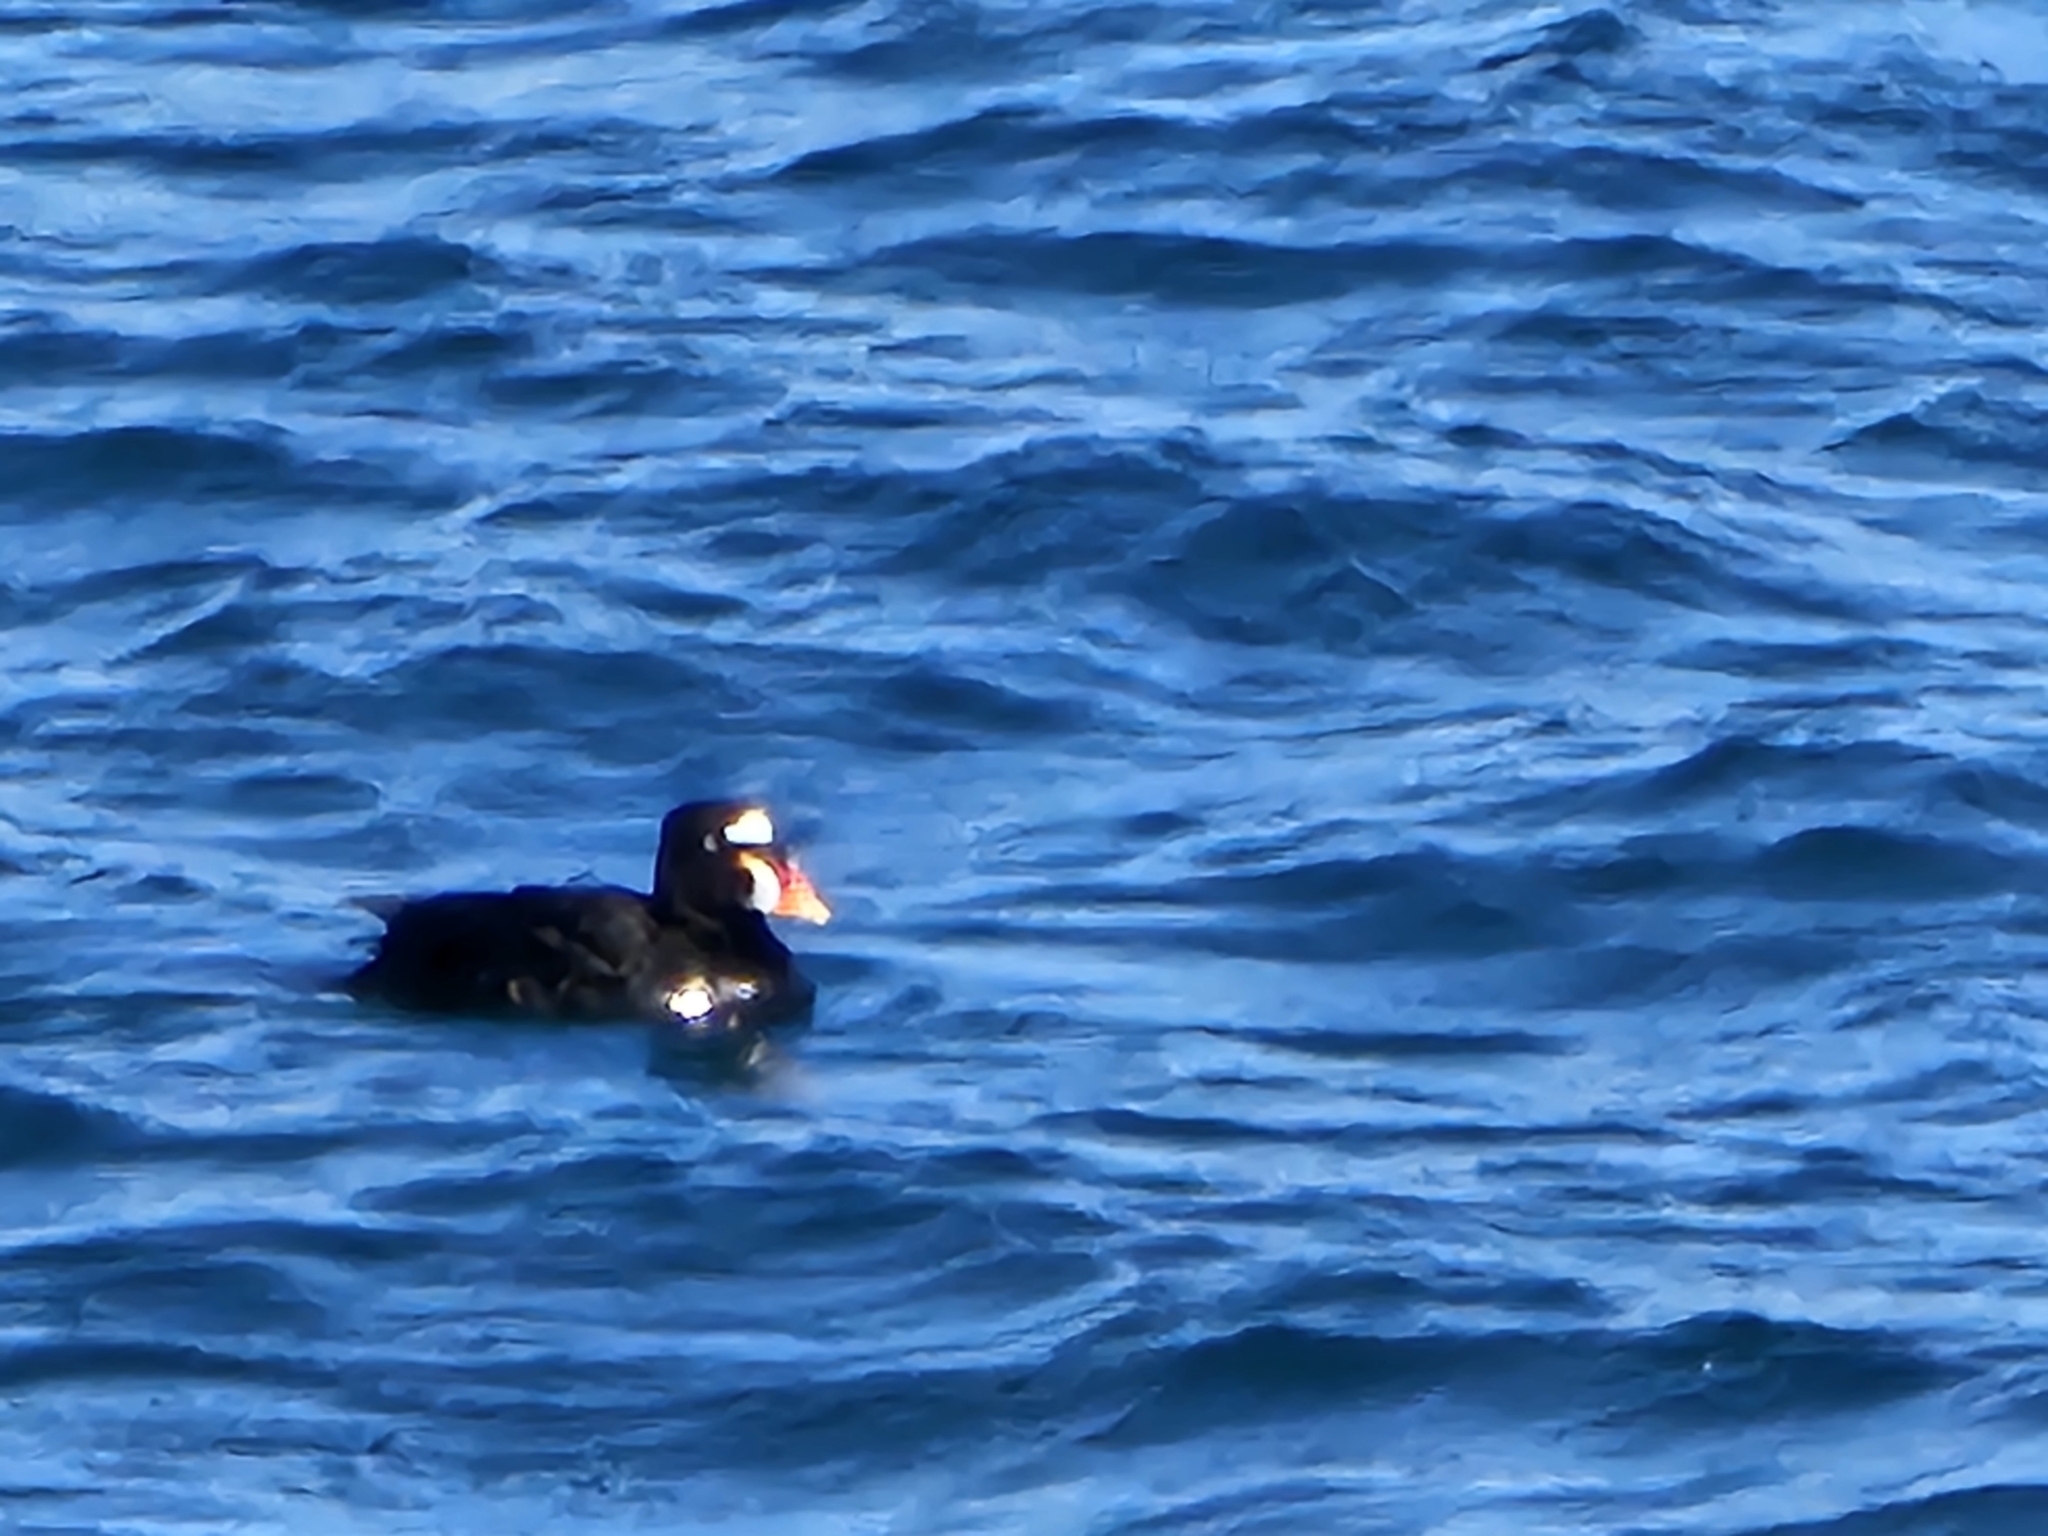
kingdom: Animalia
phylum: Chordata
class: Aves
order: Anseriformes
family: Anatidae
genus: Melanitta
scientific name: Melanitta perspicillata
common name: Surf scoter
